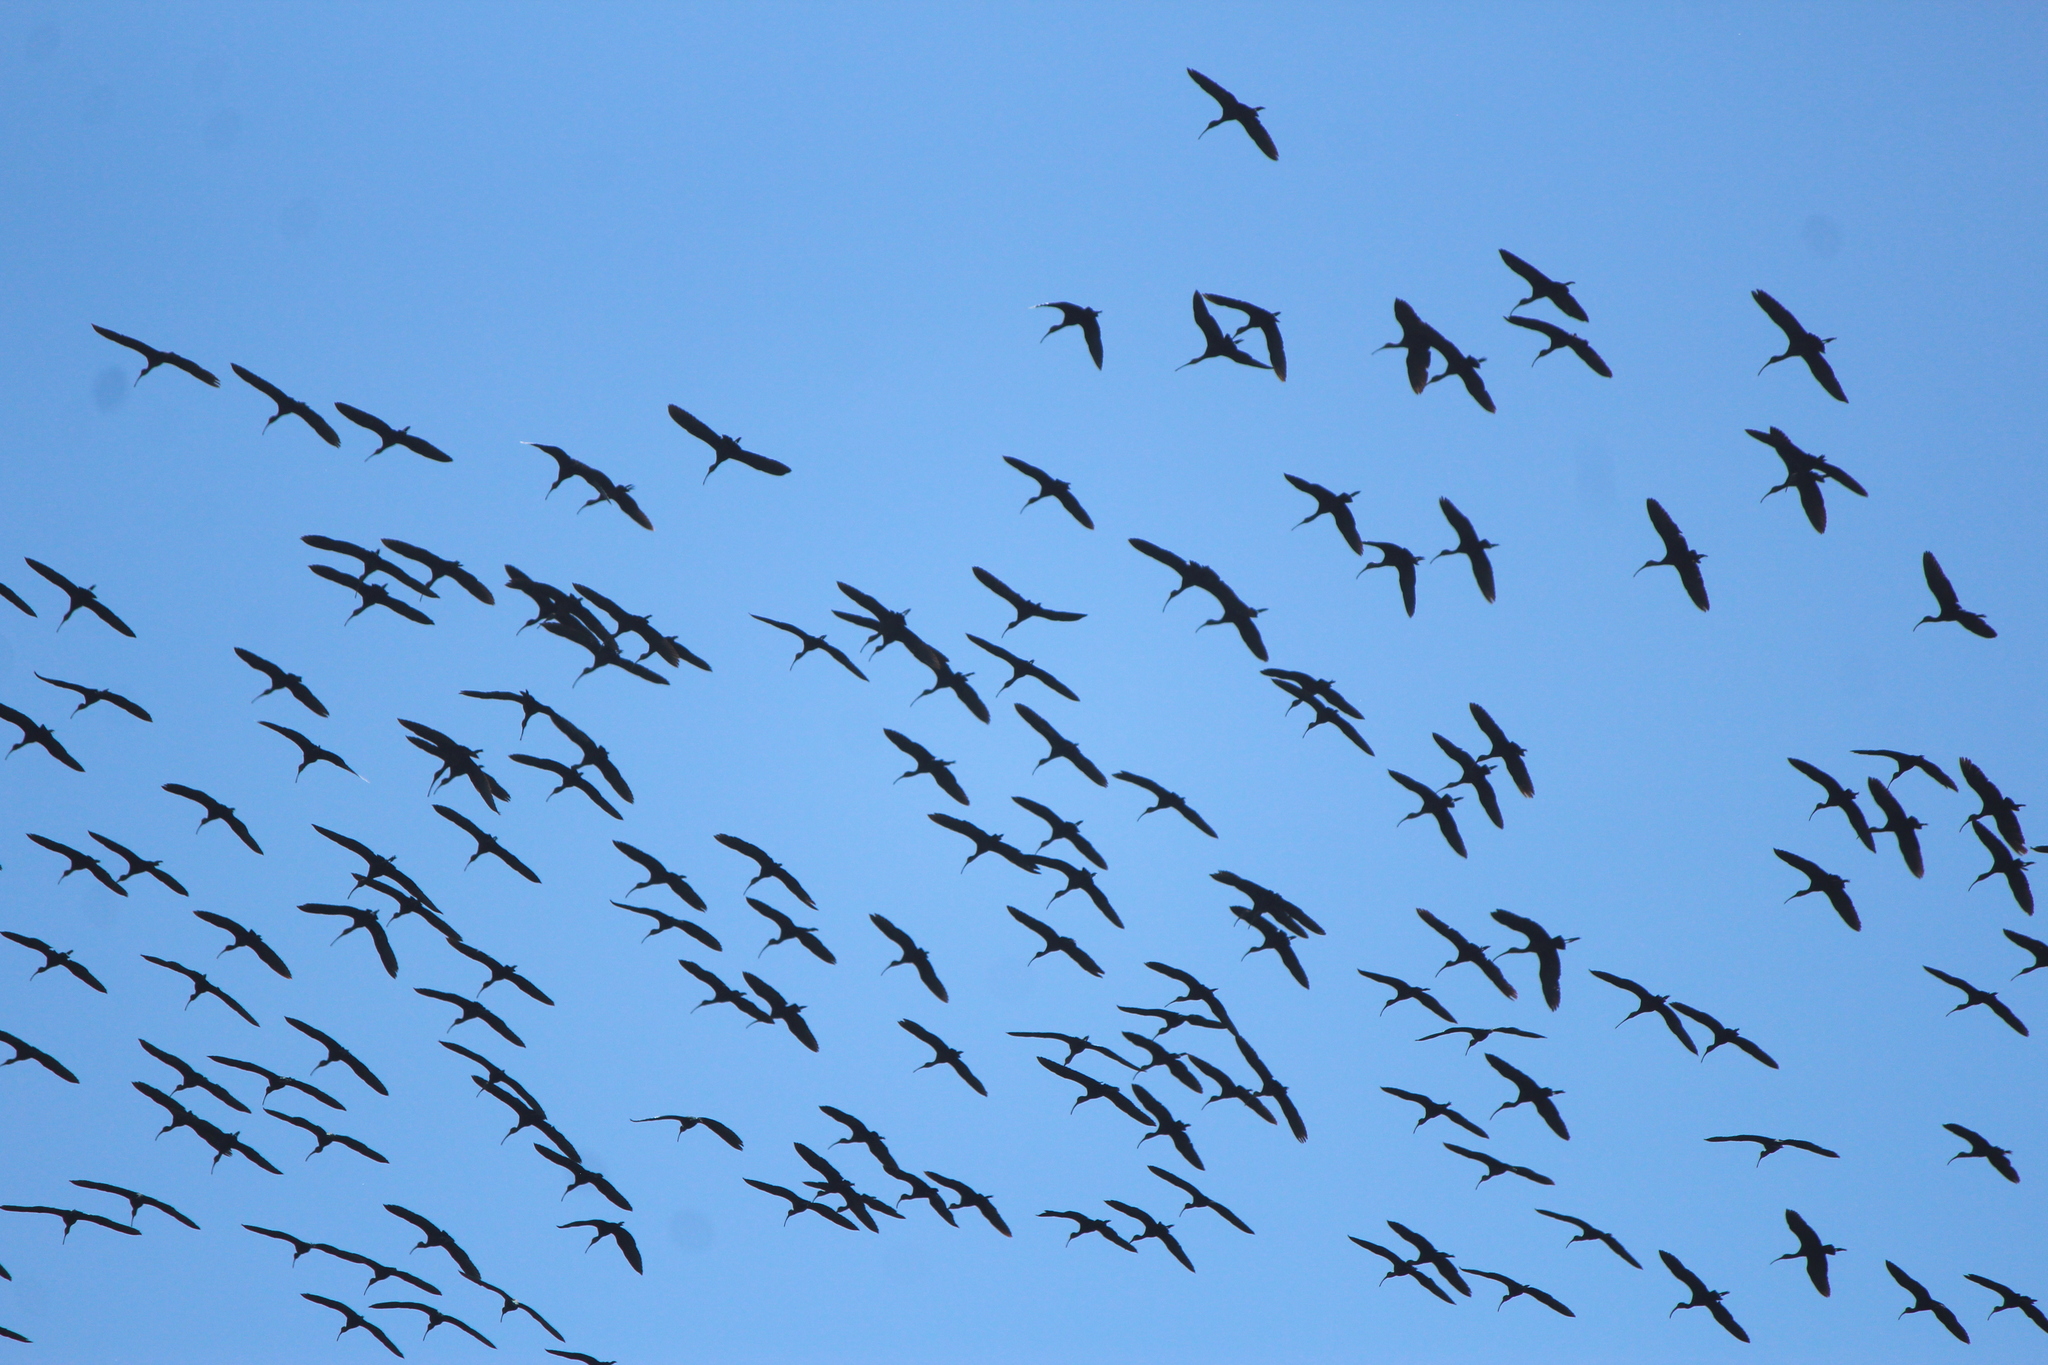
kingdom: Animalia
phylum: Chordata
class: Aves
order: Pelecaniformes
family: Threskiornithidae
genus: Plegadis
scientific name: Plegadis chihi
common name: White-faced ibis
